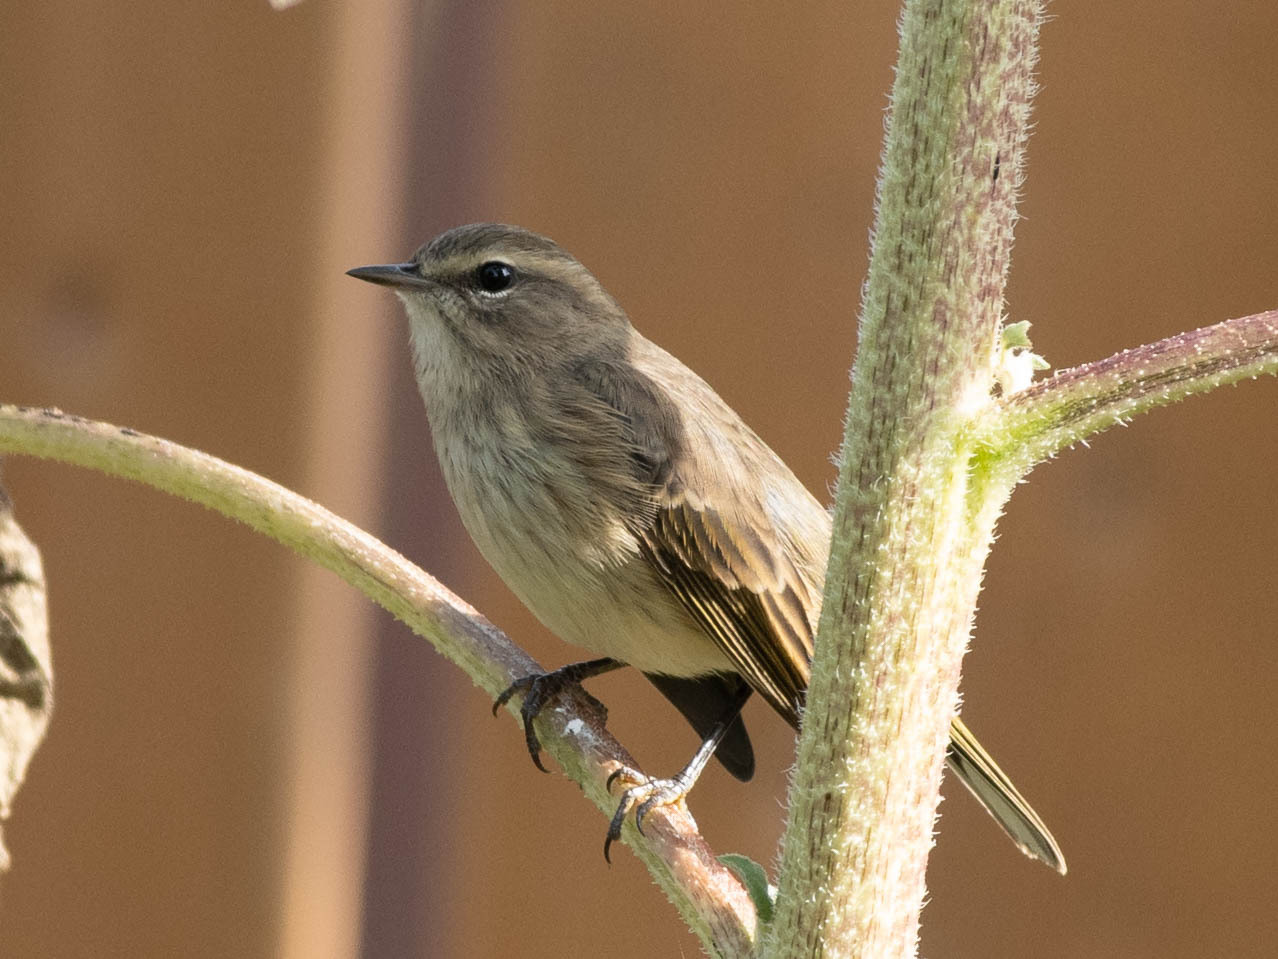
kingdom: Animalia
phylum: Chordata
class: Aves
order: Passeriformes
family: Parulidae
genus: Setophaga
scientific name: Setophaga palmarum
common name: Palm warbler
